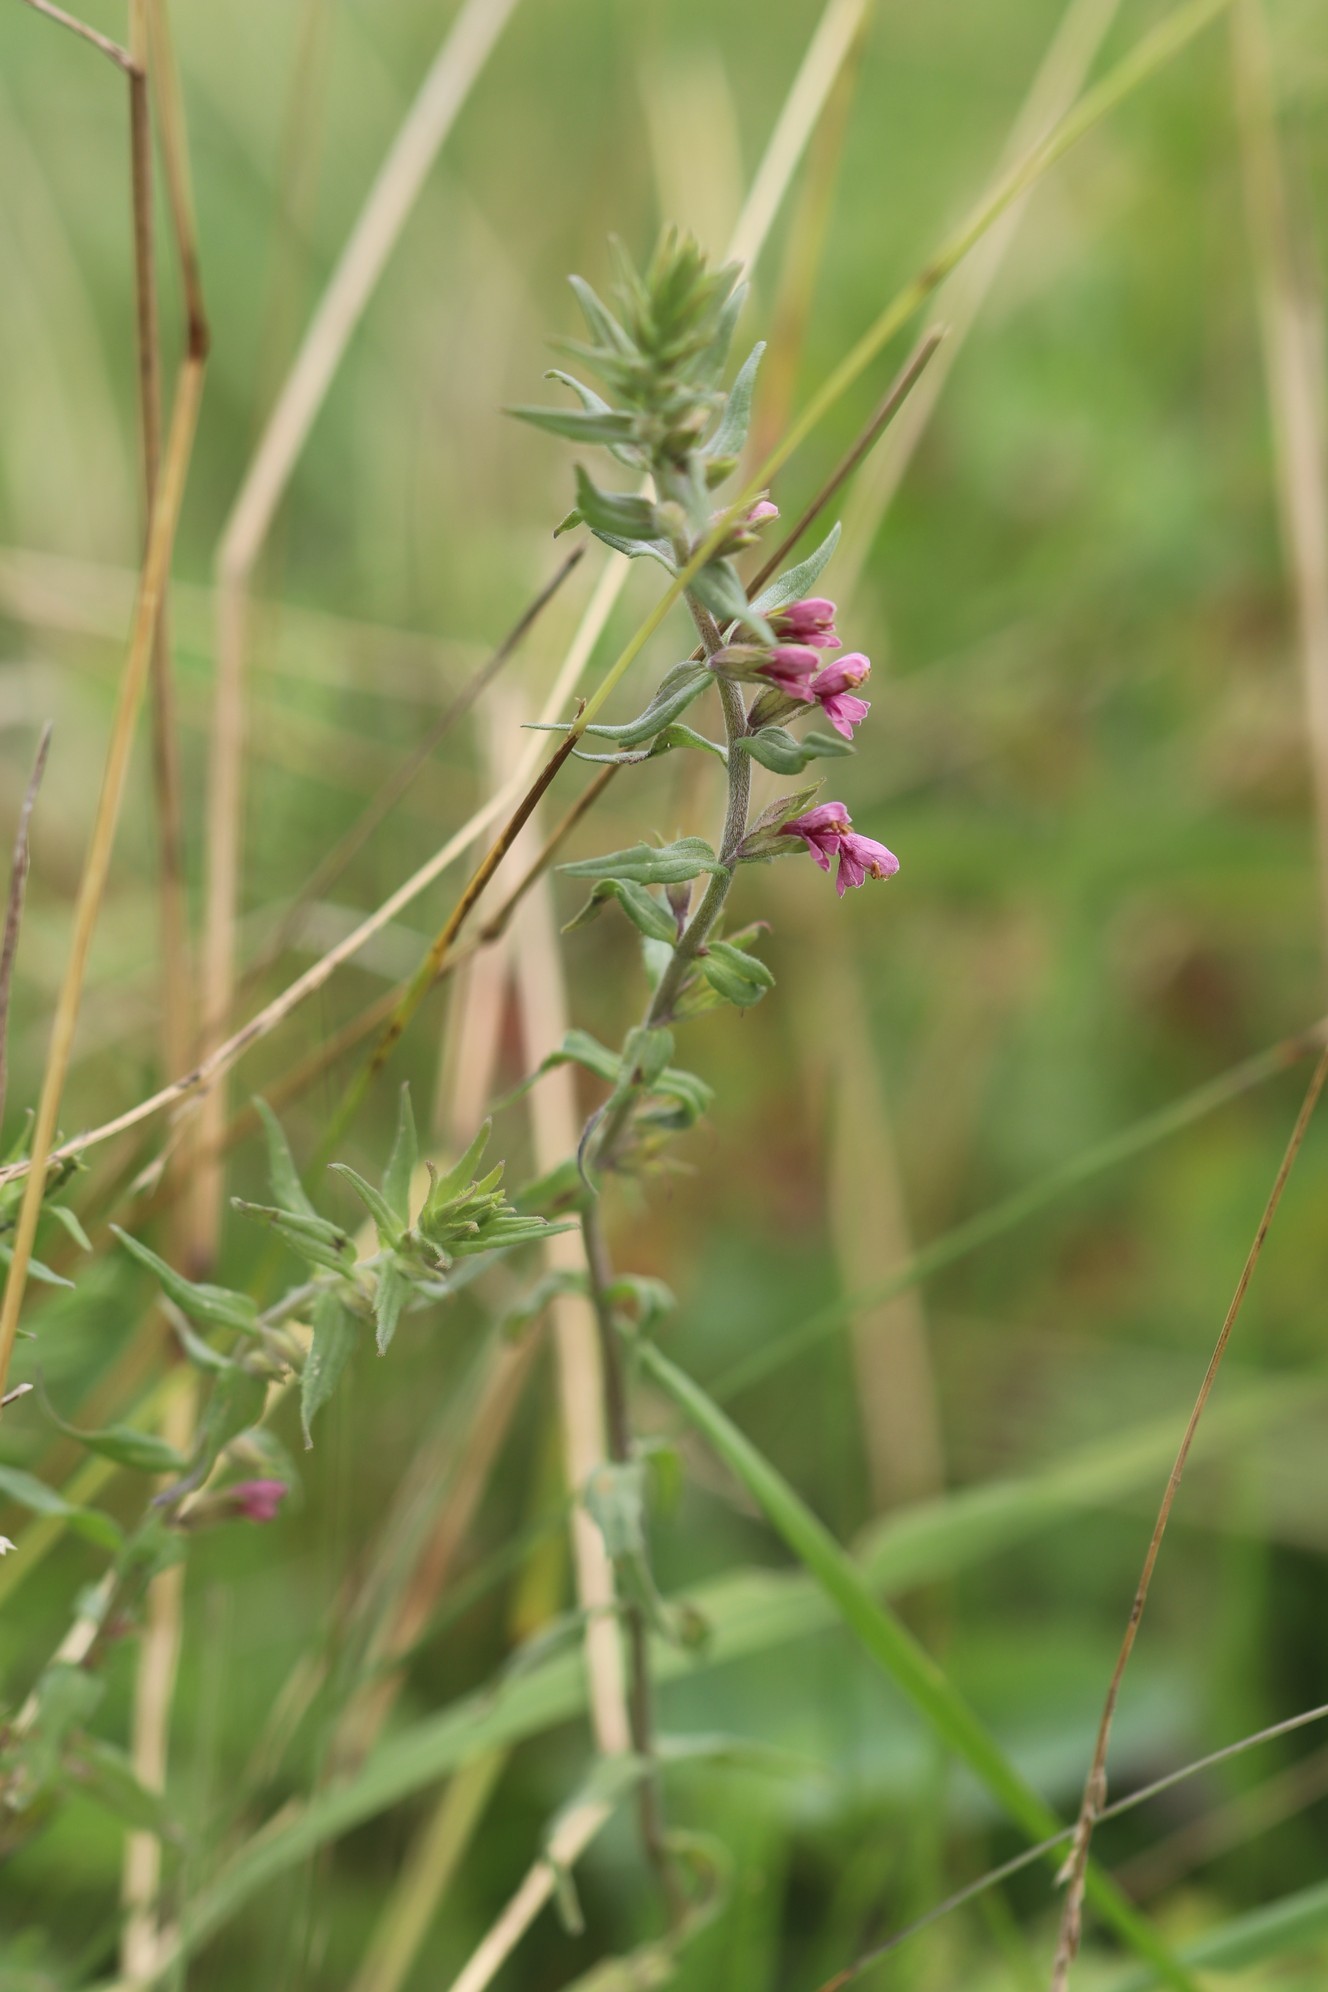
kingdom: Plantae
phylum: Tracheophyta
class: Magnoliopsida
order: Lamiales
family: Orobanchaceae
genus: Odontites
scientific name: Odontites vulgaris
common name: Broomrape
